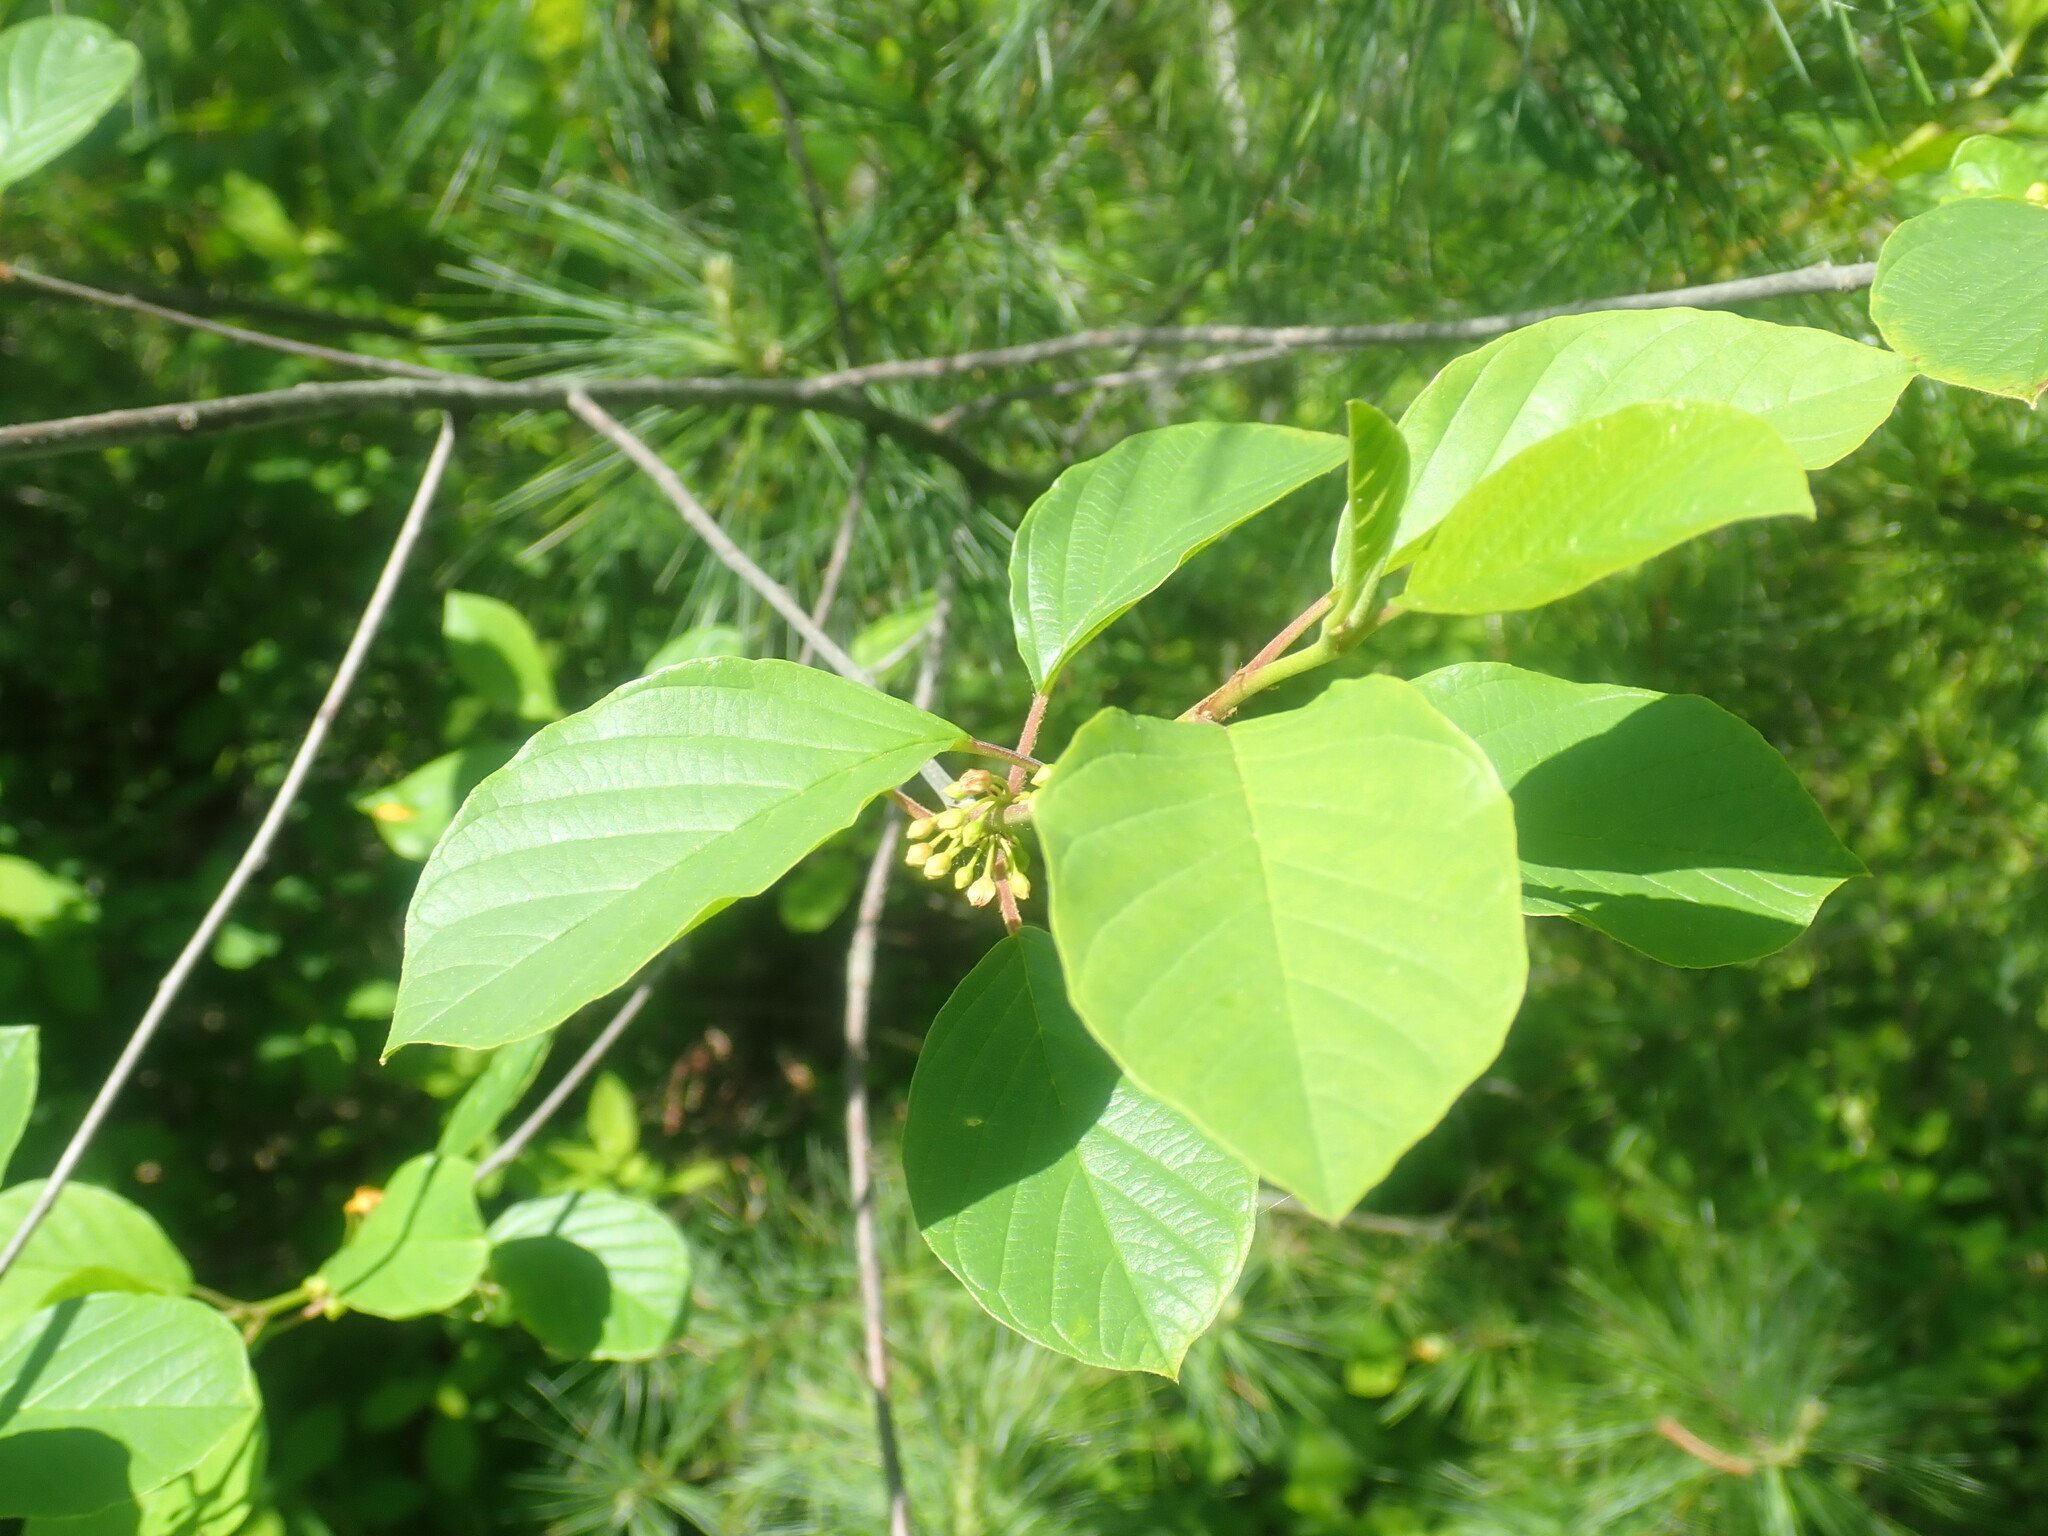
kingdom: Plantae
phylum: Tracheophyta
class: Magnoliopsida
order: Rosales
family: Rhamnaceae
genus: Frangula
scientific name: Frangula alnus
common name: Alder buckthorn
